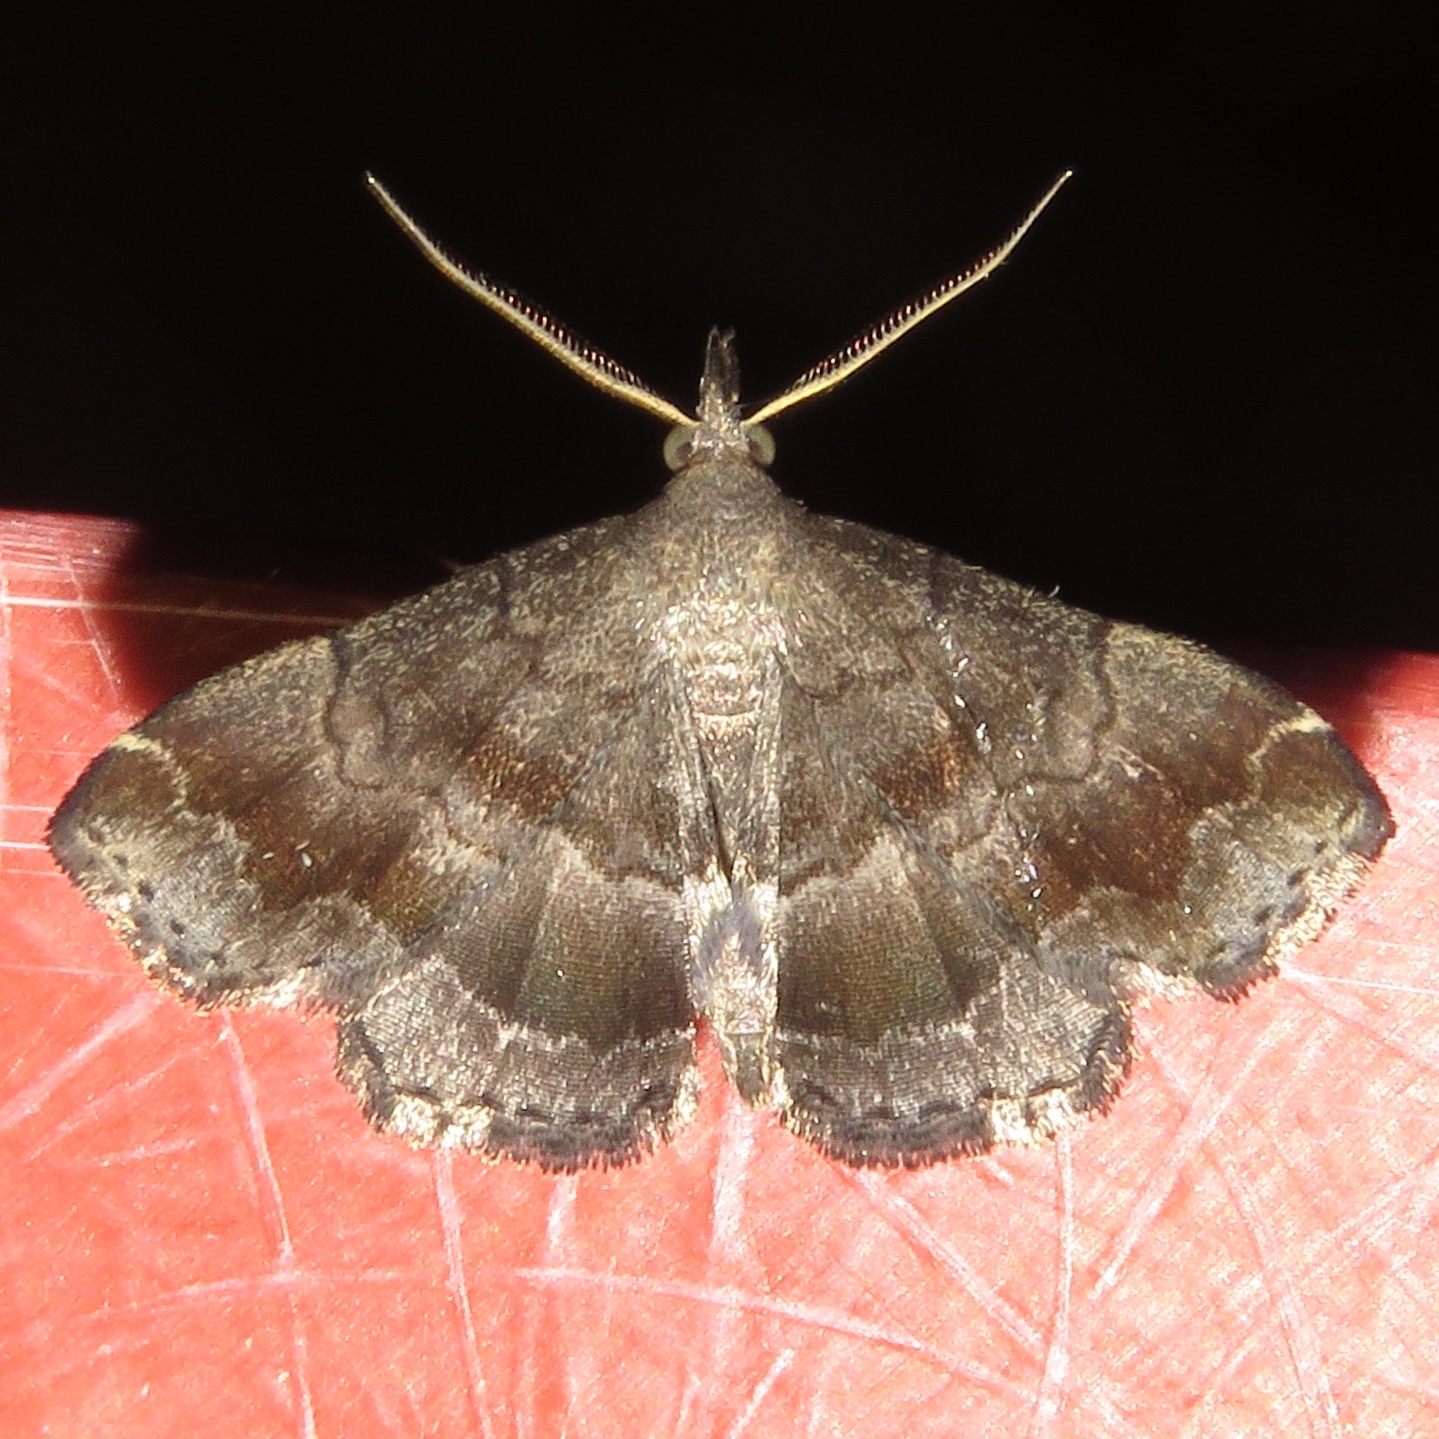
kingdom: Animalia
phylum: Arthropoda
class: Insecta
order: Lepidoptera
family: Erebidae
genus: Phalaenostola
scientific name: Phalaenostola larentioides
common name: Black-banded owlet
